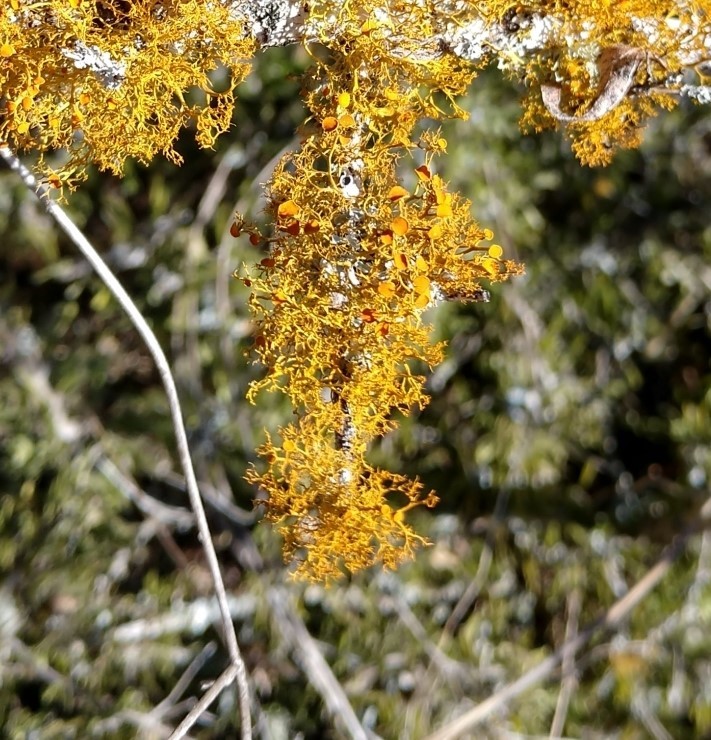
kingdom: Fungi
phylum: Ascomycota
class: Lecanoromycetes
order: Teloschistales
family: Teloschistaceae
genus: Teloschistes
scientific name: Teloschistes exilis
